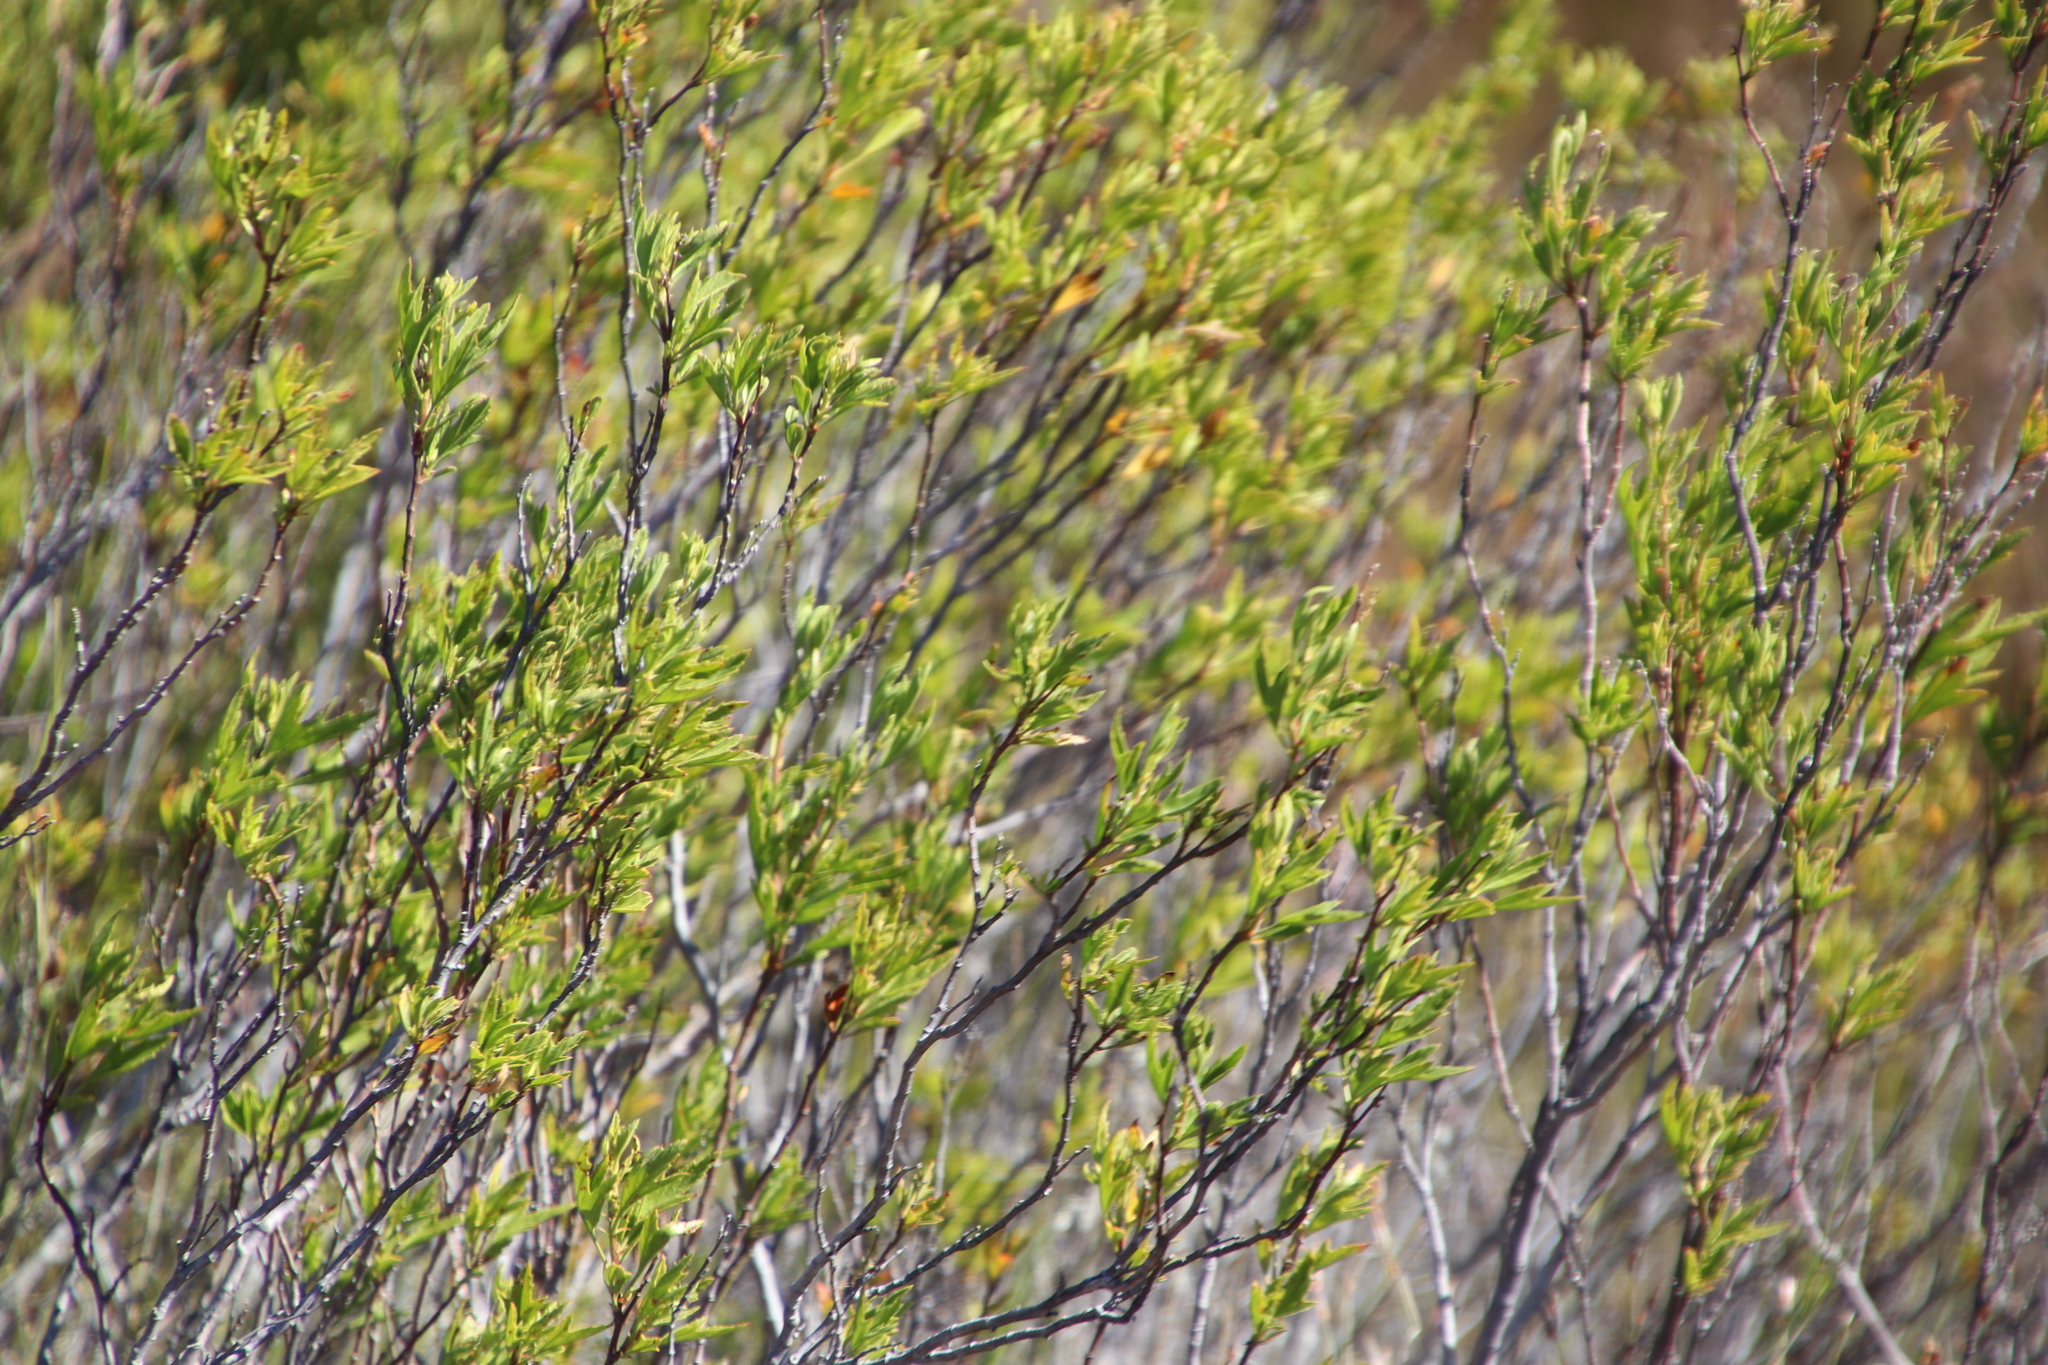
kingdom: Plantae
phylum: Tracheophyta
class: Magnoliopsida
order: Geraniales
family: Geraniaceae
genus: Pelargonium
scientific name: Pelargonium scabrum
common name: Apricot geranium
